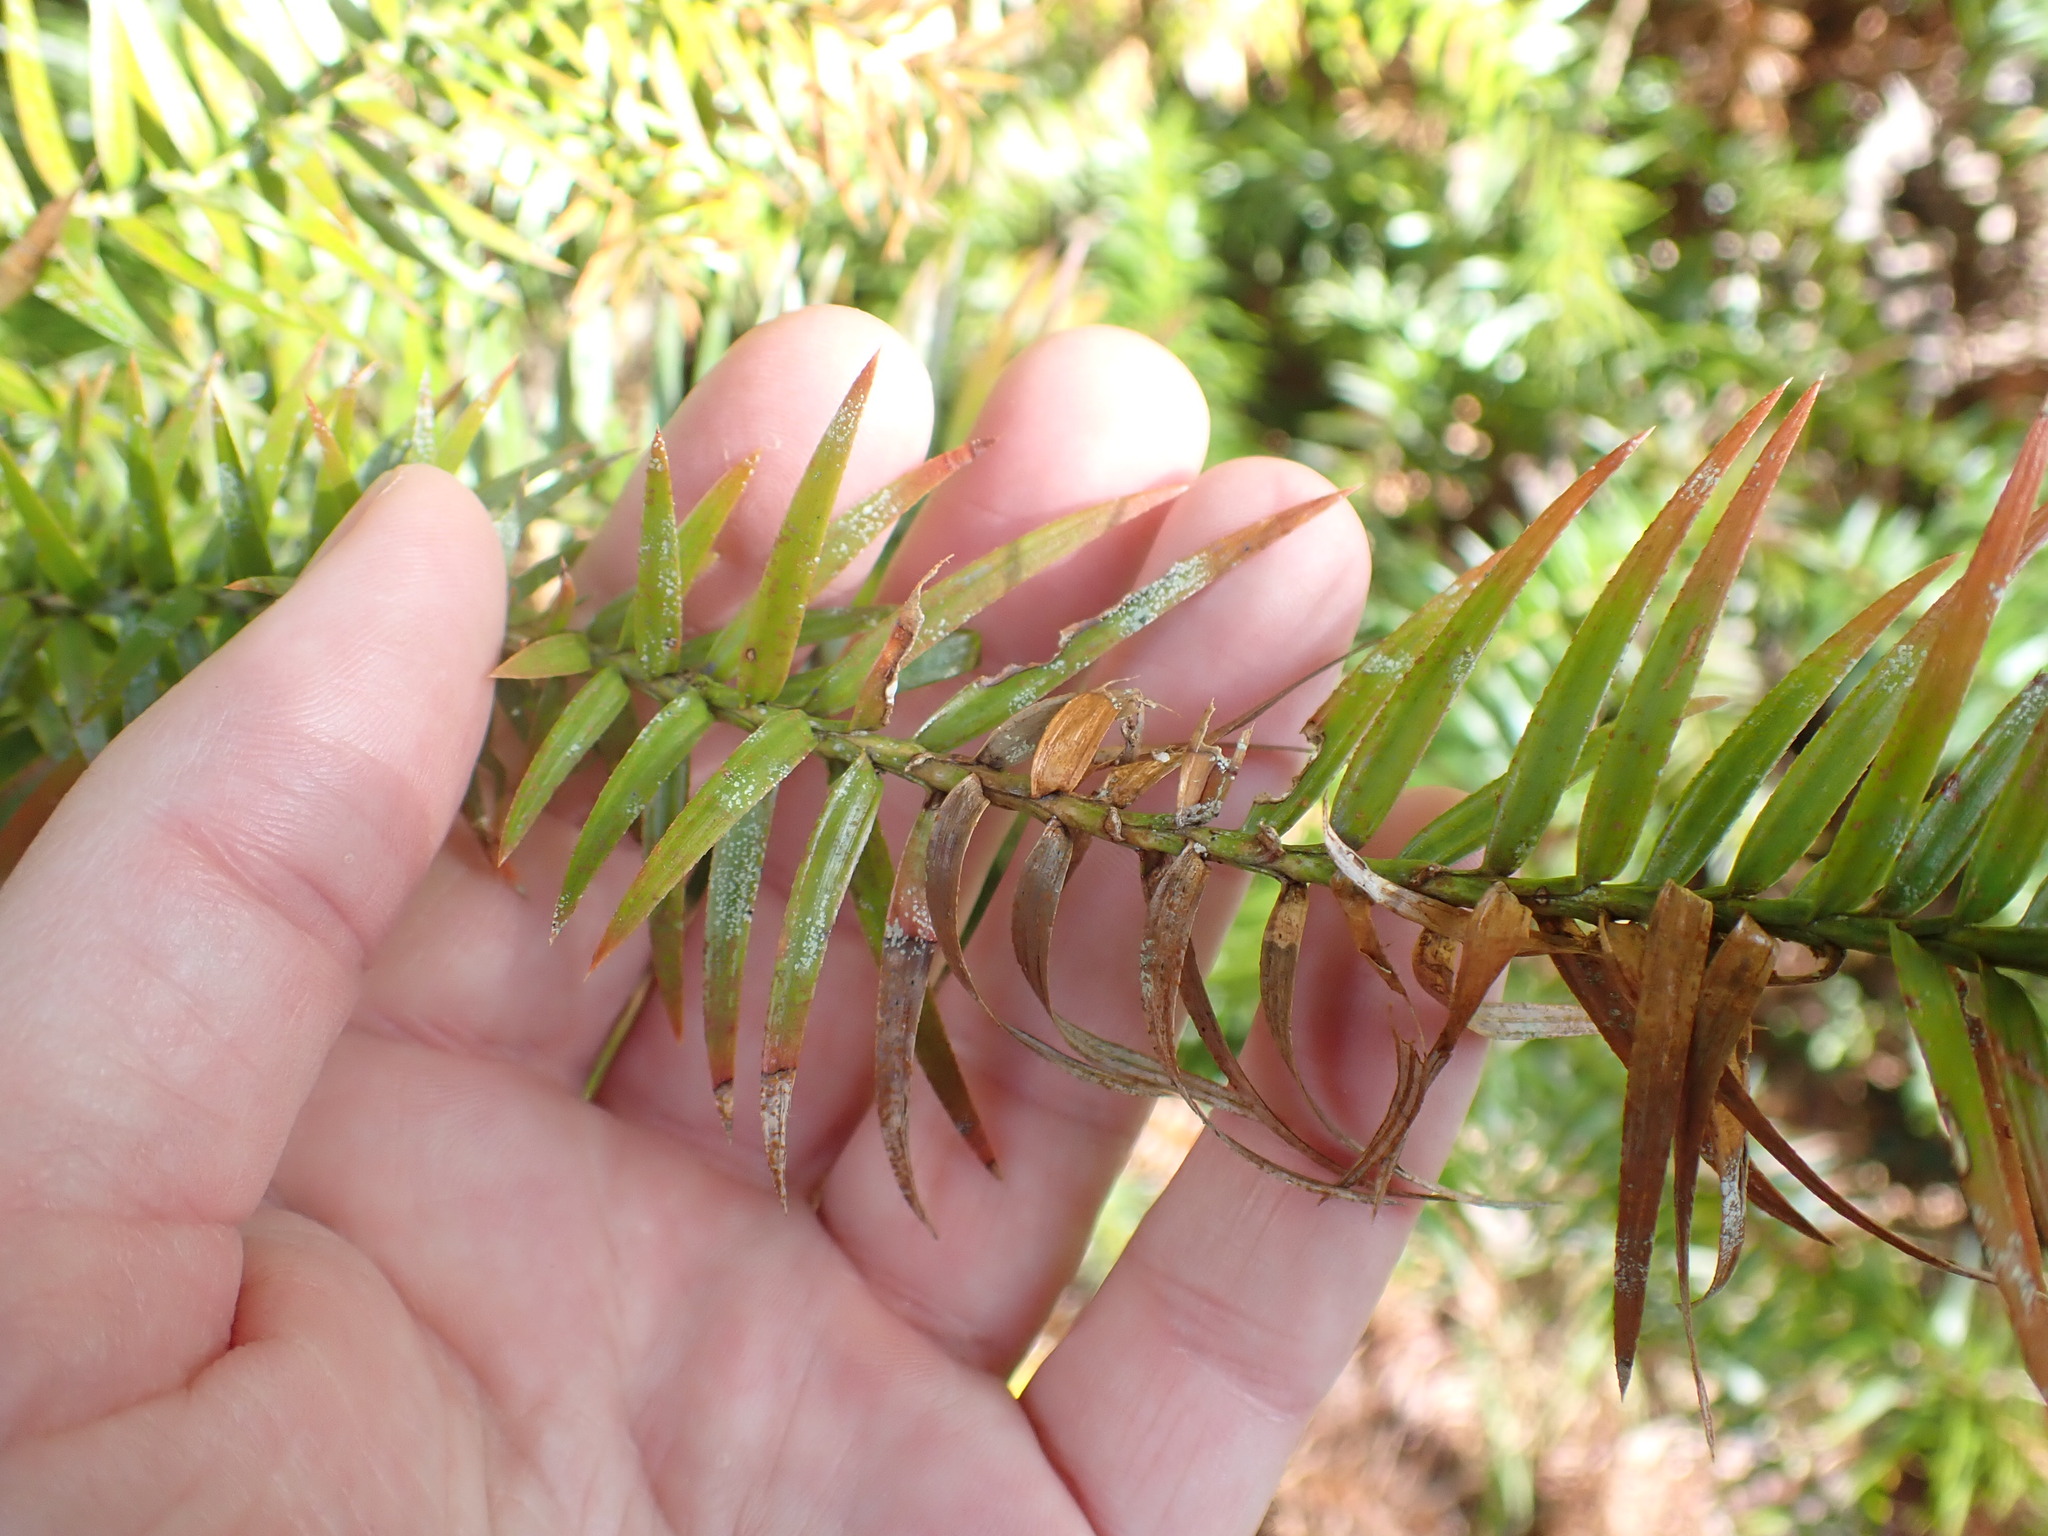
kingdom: Plantae
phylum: Tracheophyta
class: Pinopsida
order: Pinales
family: Araucariaceae
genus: Agathis
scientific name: Agathis australis
